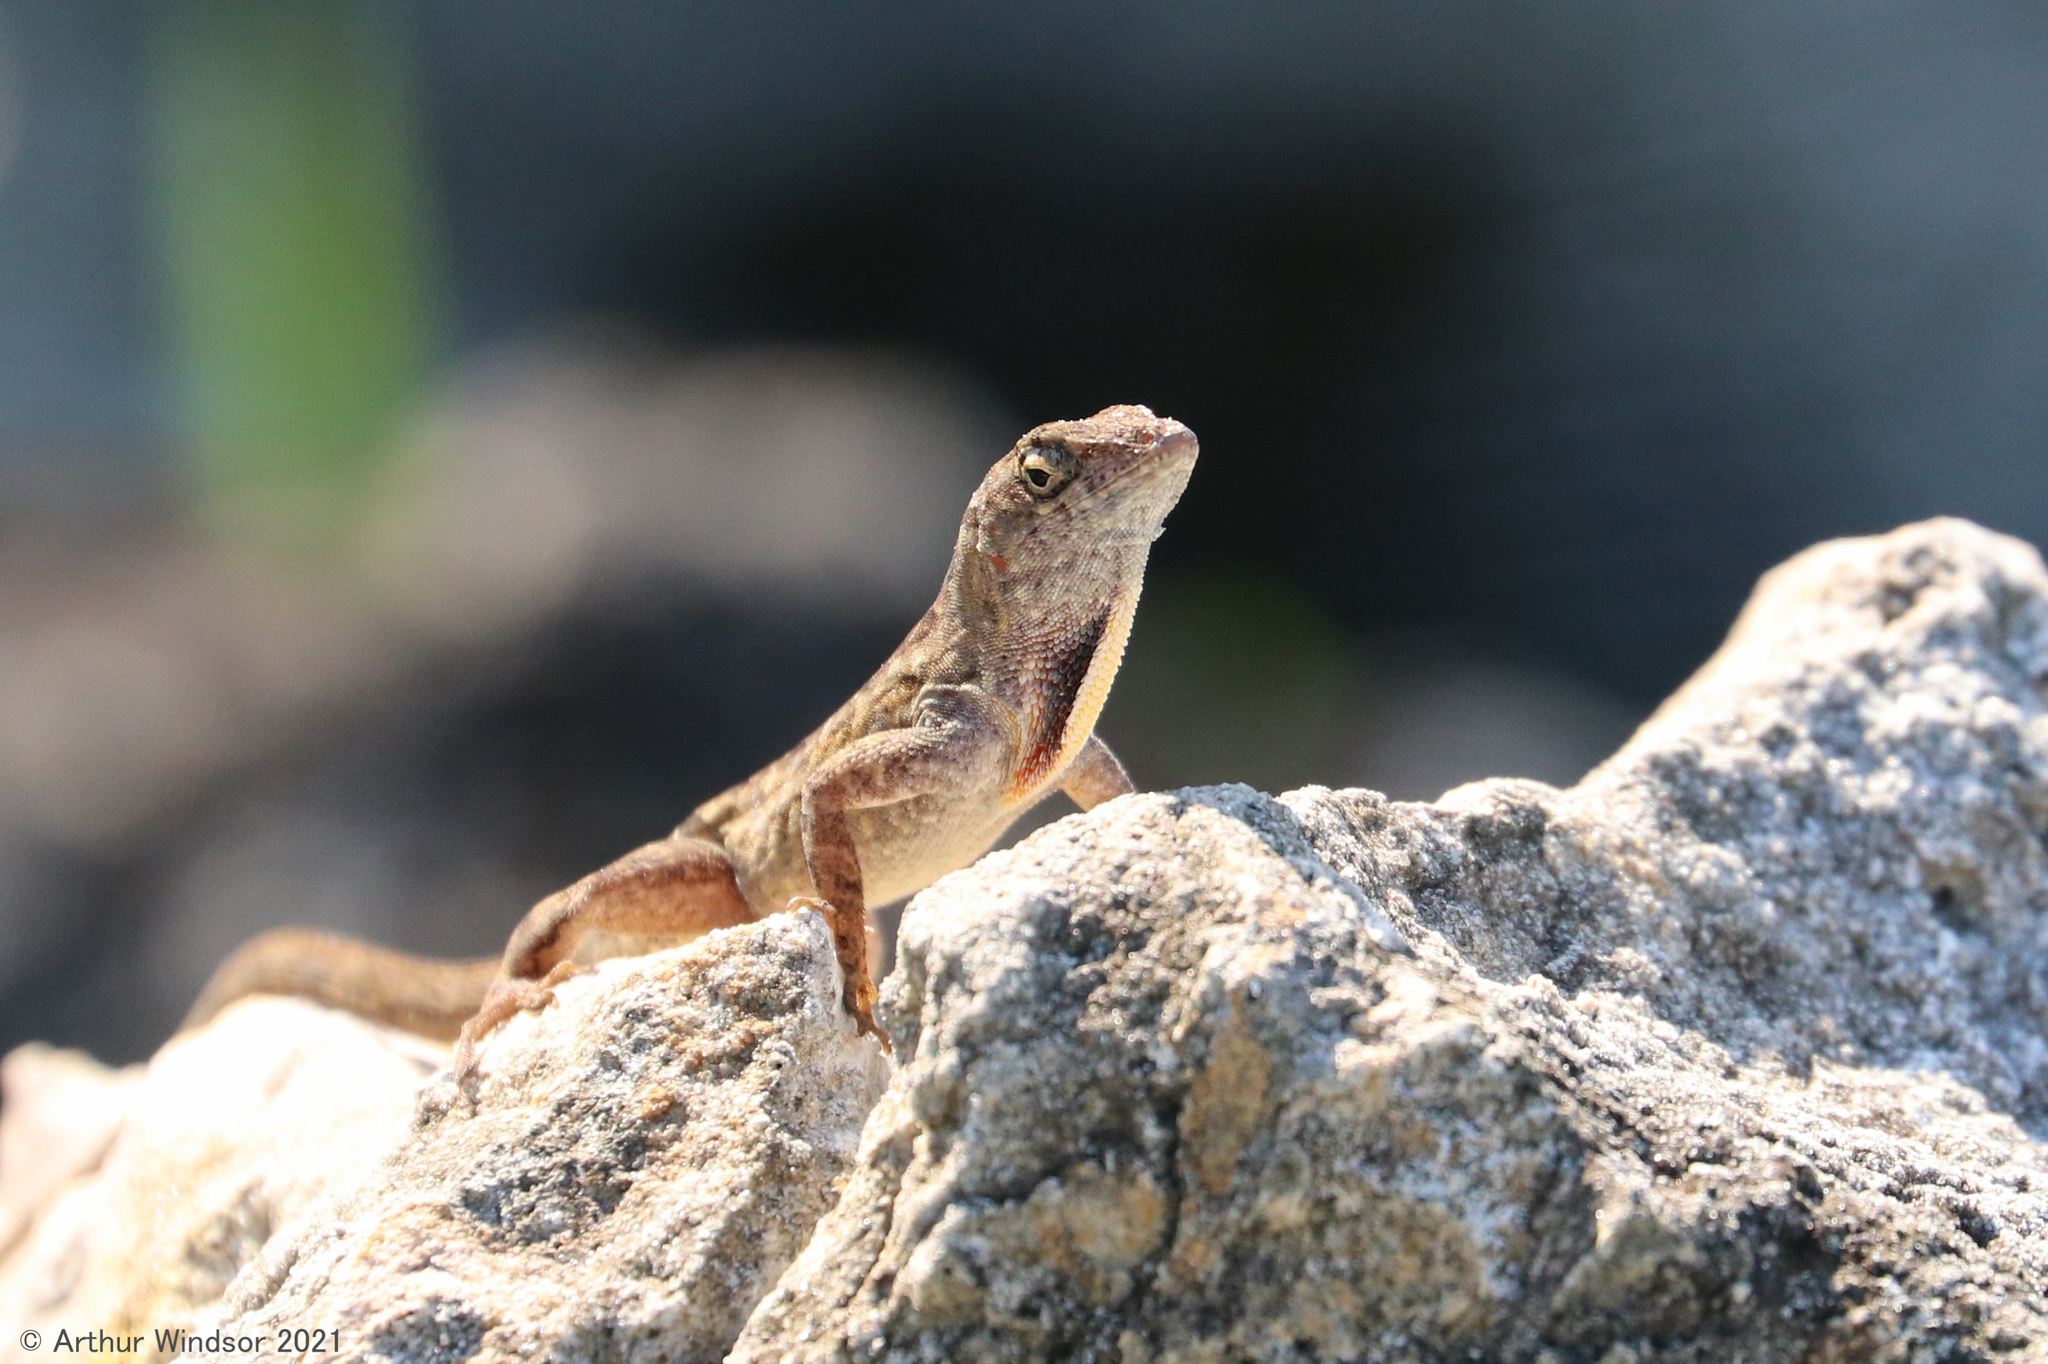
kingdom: Animalia
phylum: Chordata
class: Squamata
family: Dactyloidae
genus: Anolis
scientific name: Anolis sagrei
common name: Brown anole
